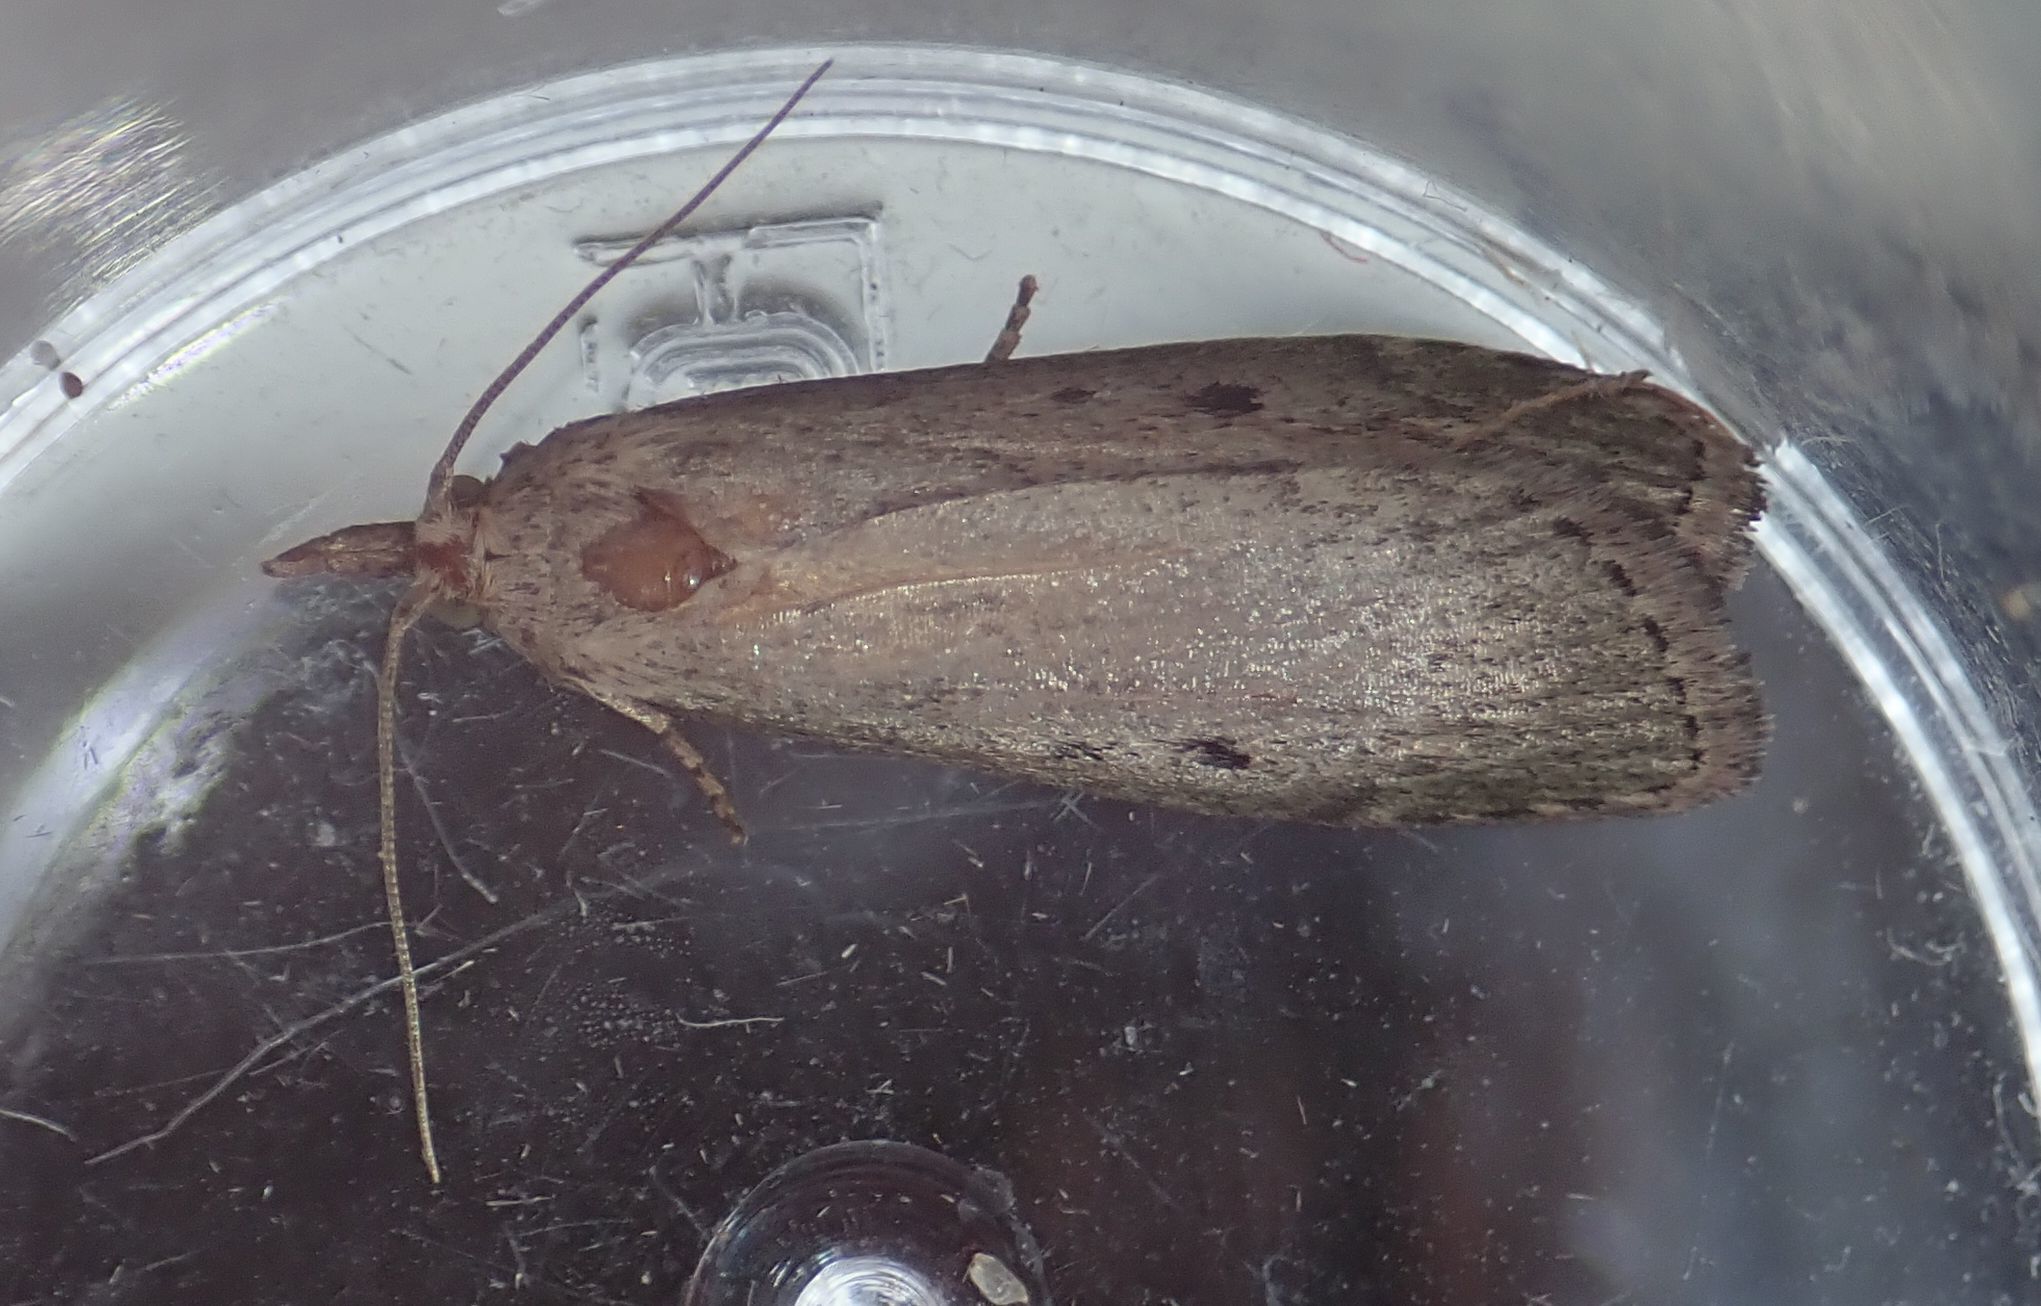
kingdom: Animalia
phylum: Arthropoda
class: Insecta
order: Lepidoptera
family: Pyralidae
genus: Aphomia
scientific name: Aphomia sociella
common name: Bee moth
